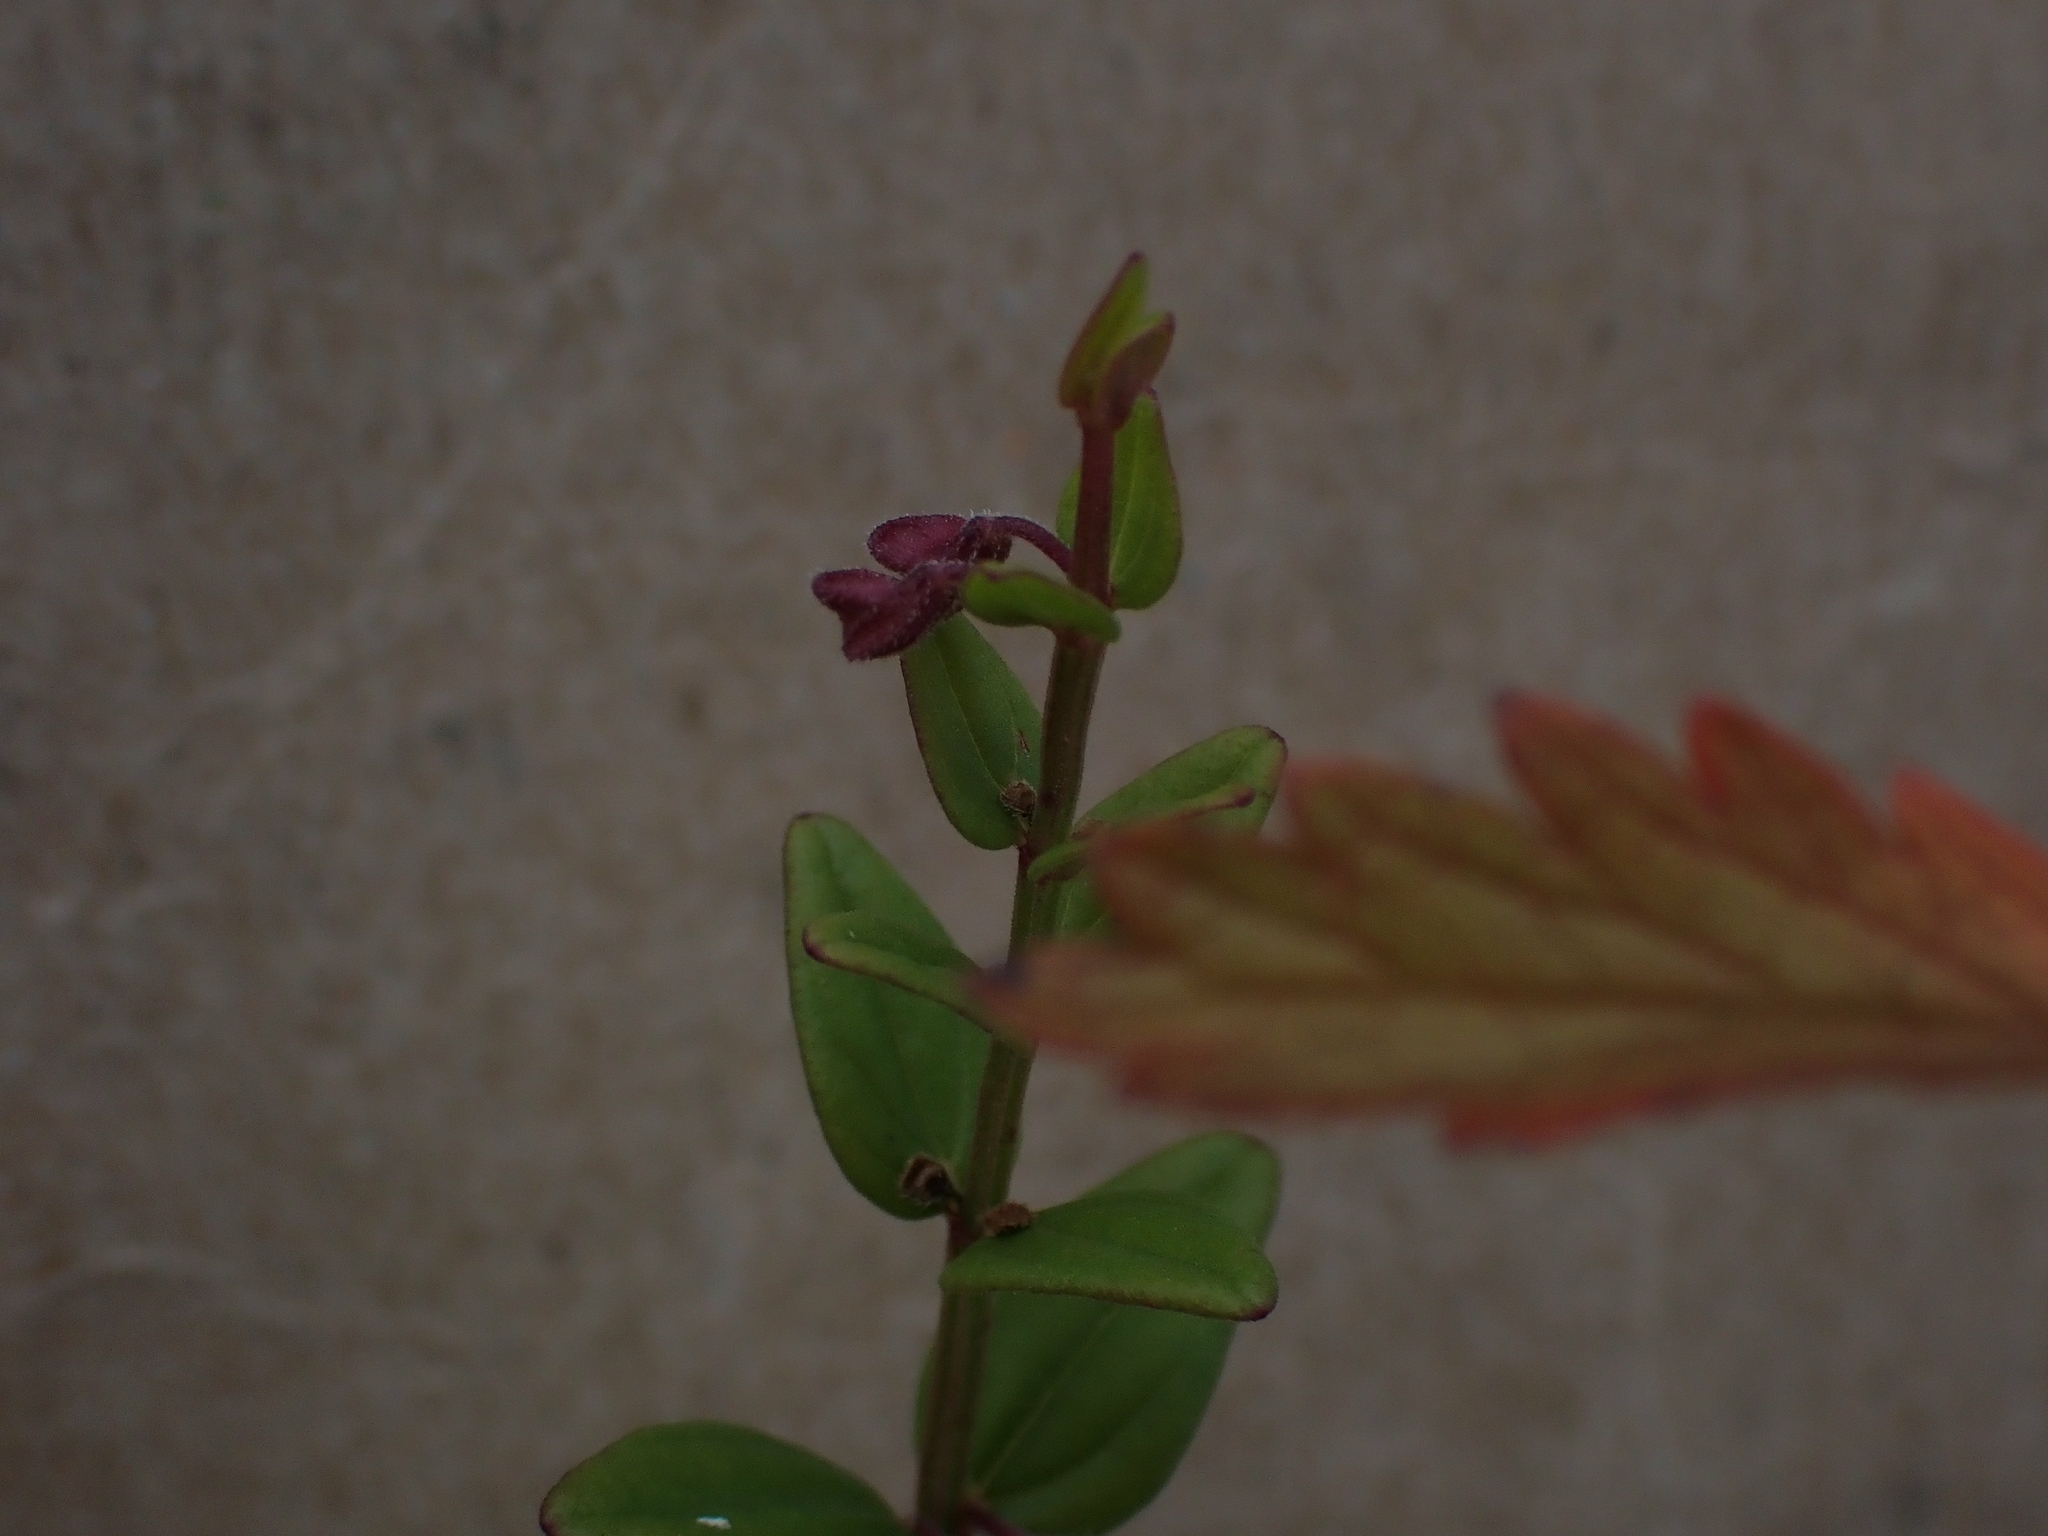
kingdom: Plantae
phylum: Tracheophyta
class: Magnoliopsida
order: Lamiales
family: Lamiaceae
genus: Scutellaria
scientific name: Scutellaria parvula
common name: Little scullcap
